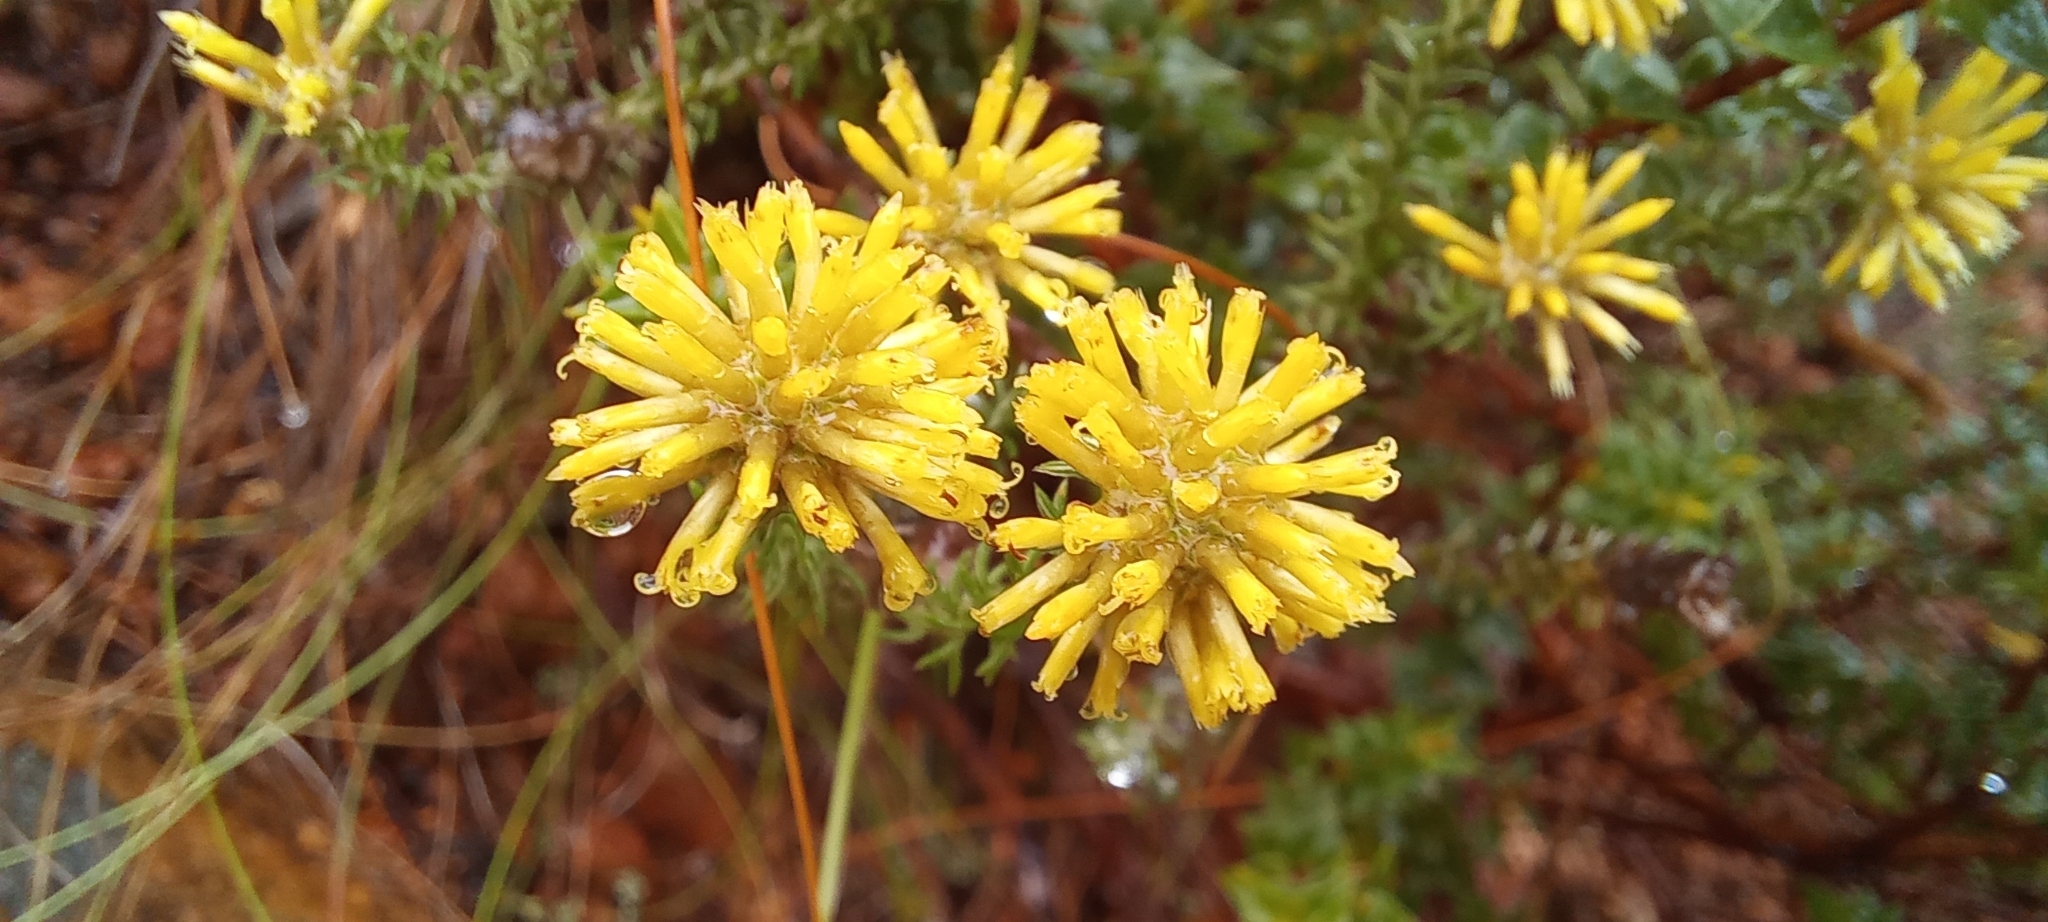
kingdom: Plantae
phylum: Tracheophyta
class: Magnoliopsida
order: Asterales
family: Asteraceae
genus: Seriphium
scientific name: Seriphium spirale
